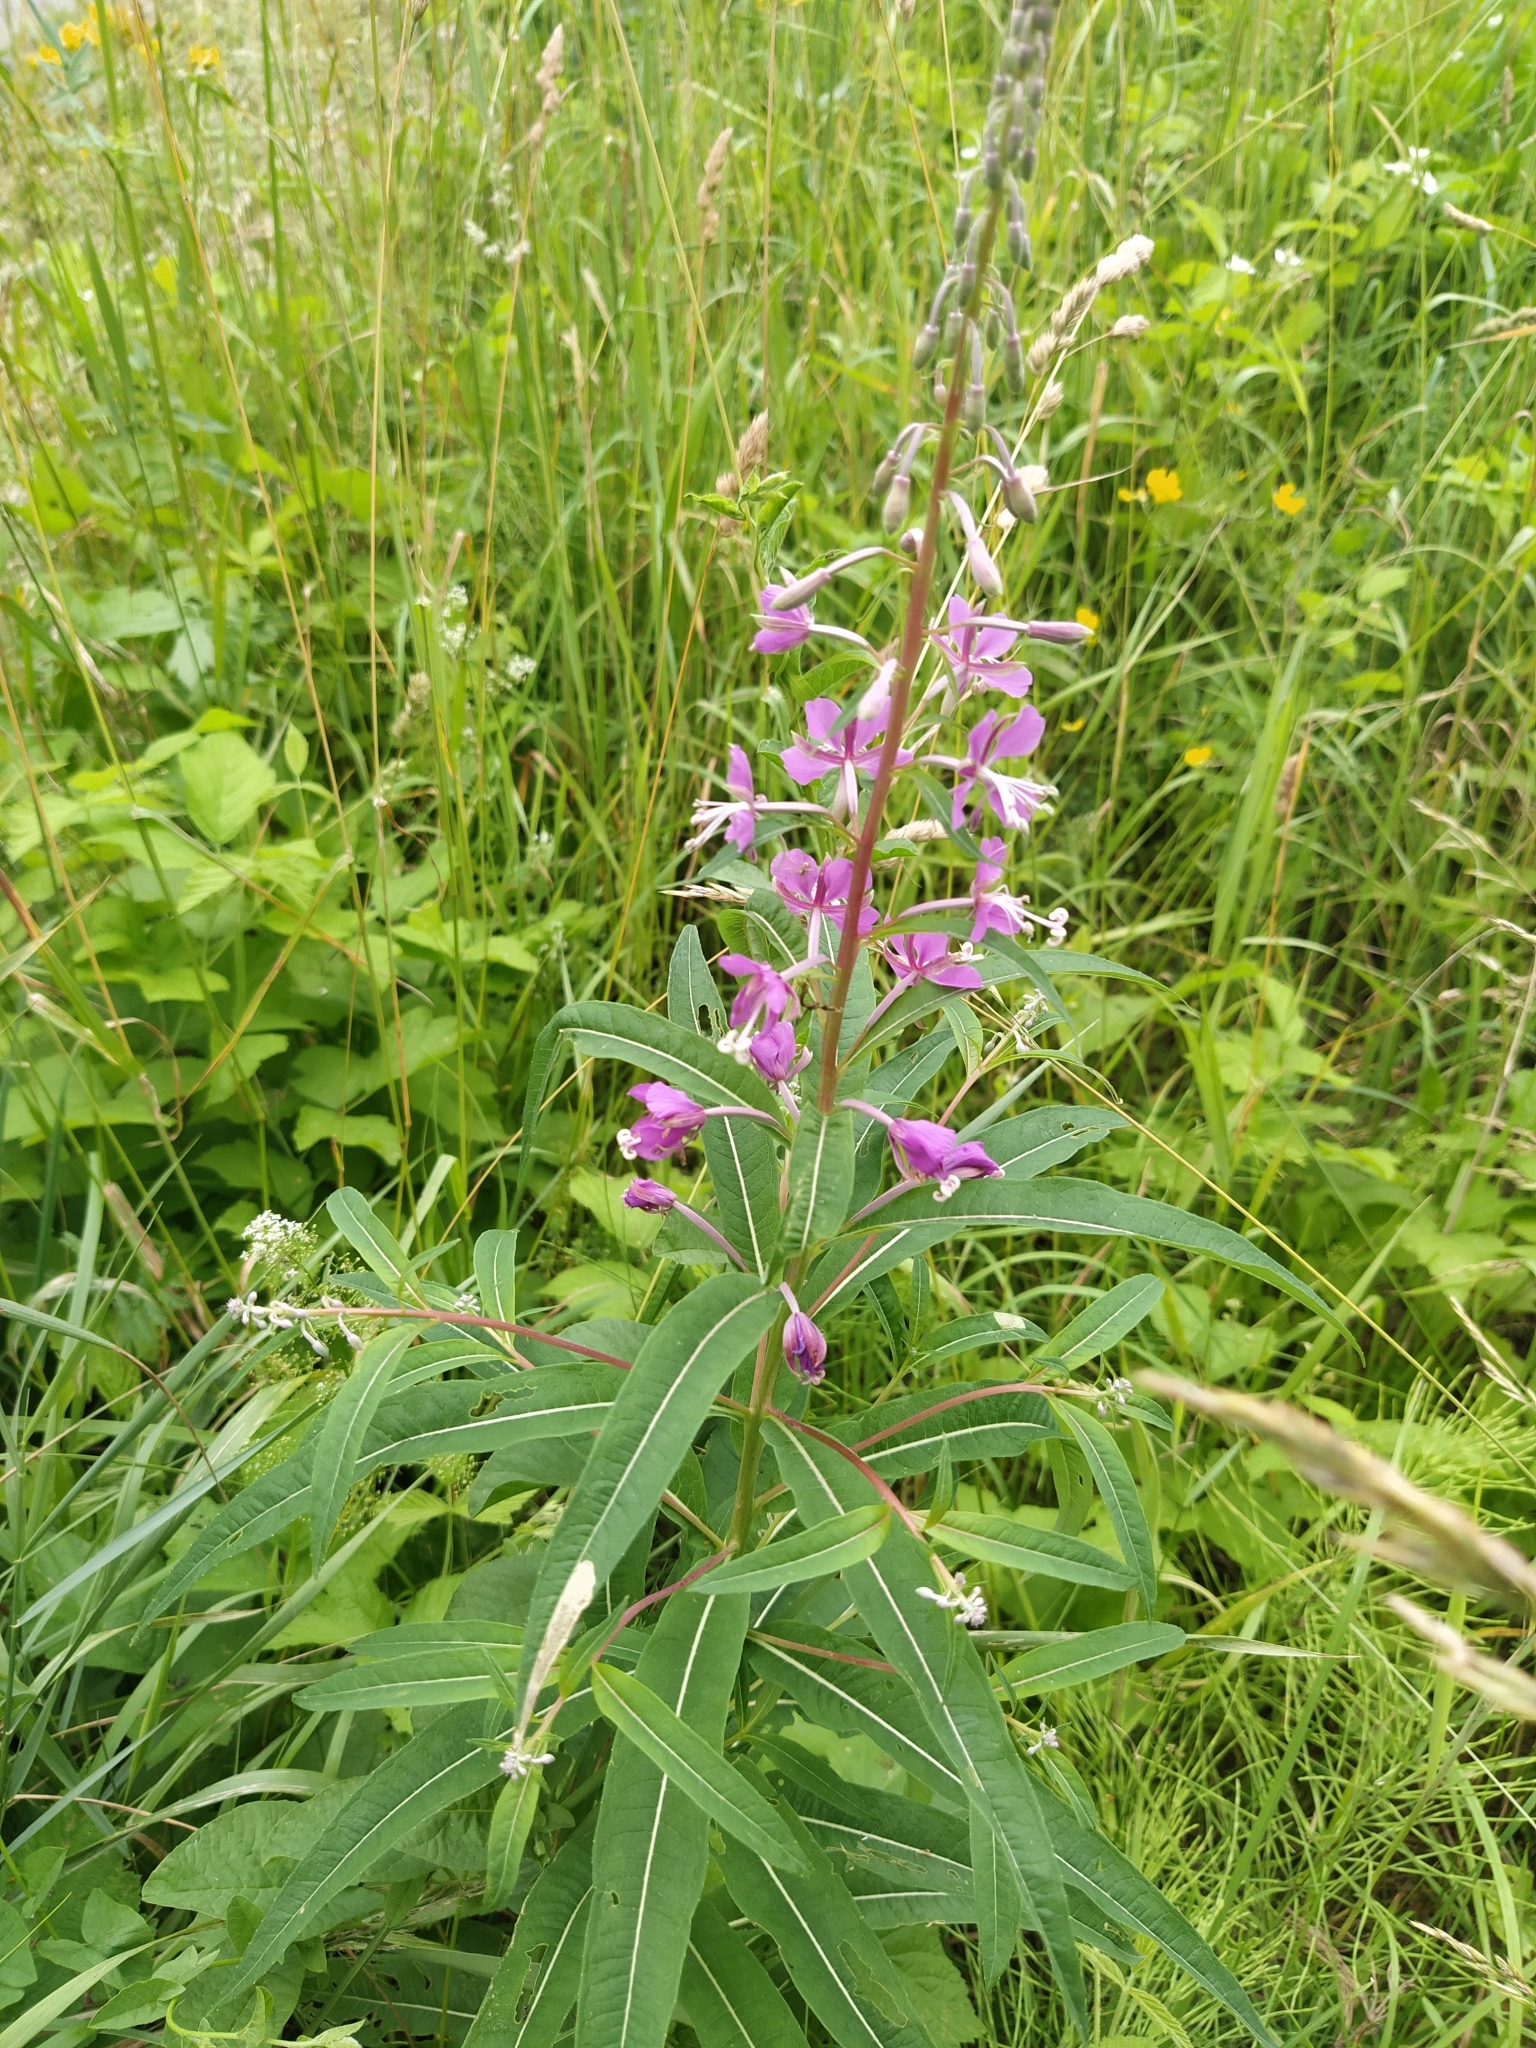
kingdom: Plantae
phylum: Tracheophyta
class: Magnoliopsida
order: Myrtales
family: Onagraceae
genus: Chamaenerion
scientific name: Chamaenerion angustifolium
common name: Fireweed
